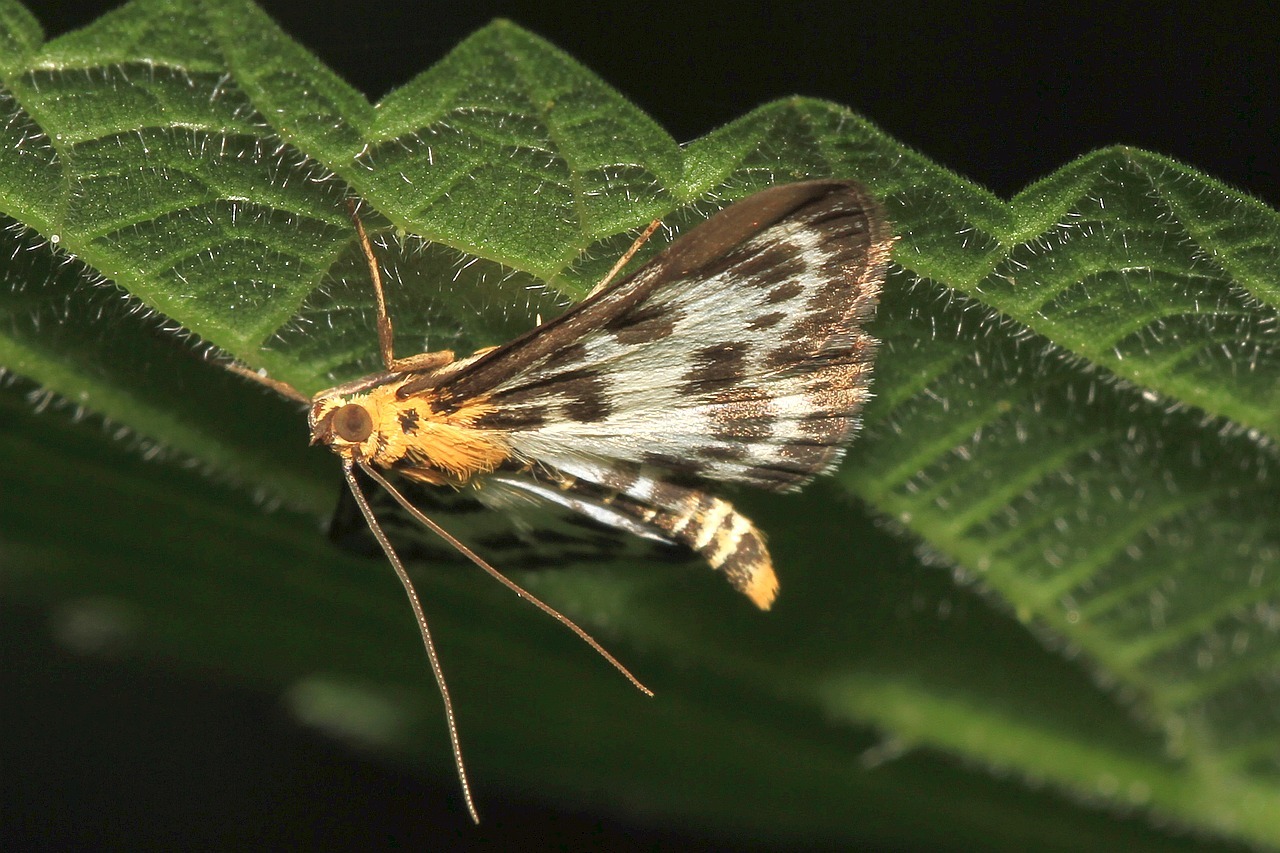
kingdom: Animalia
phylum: Arthropoda
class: Insecta
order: Lepidoptera
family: Crambidae
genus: Anania
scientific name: Anania hortulata
